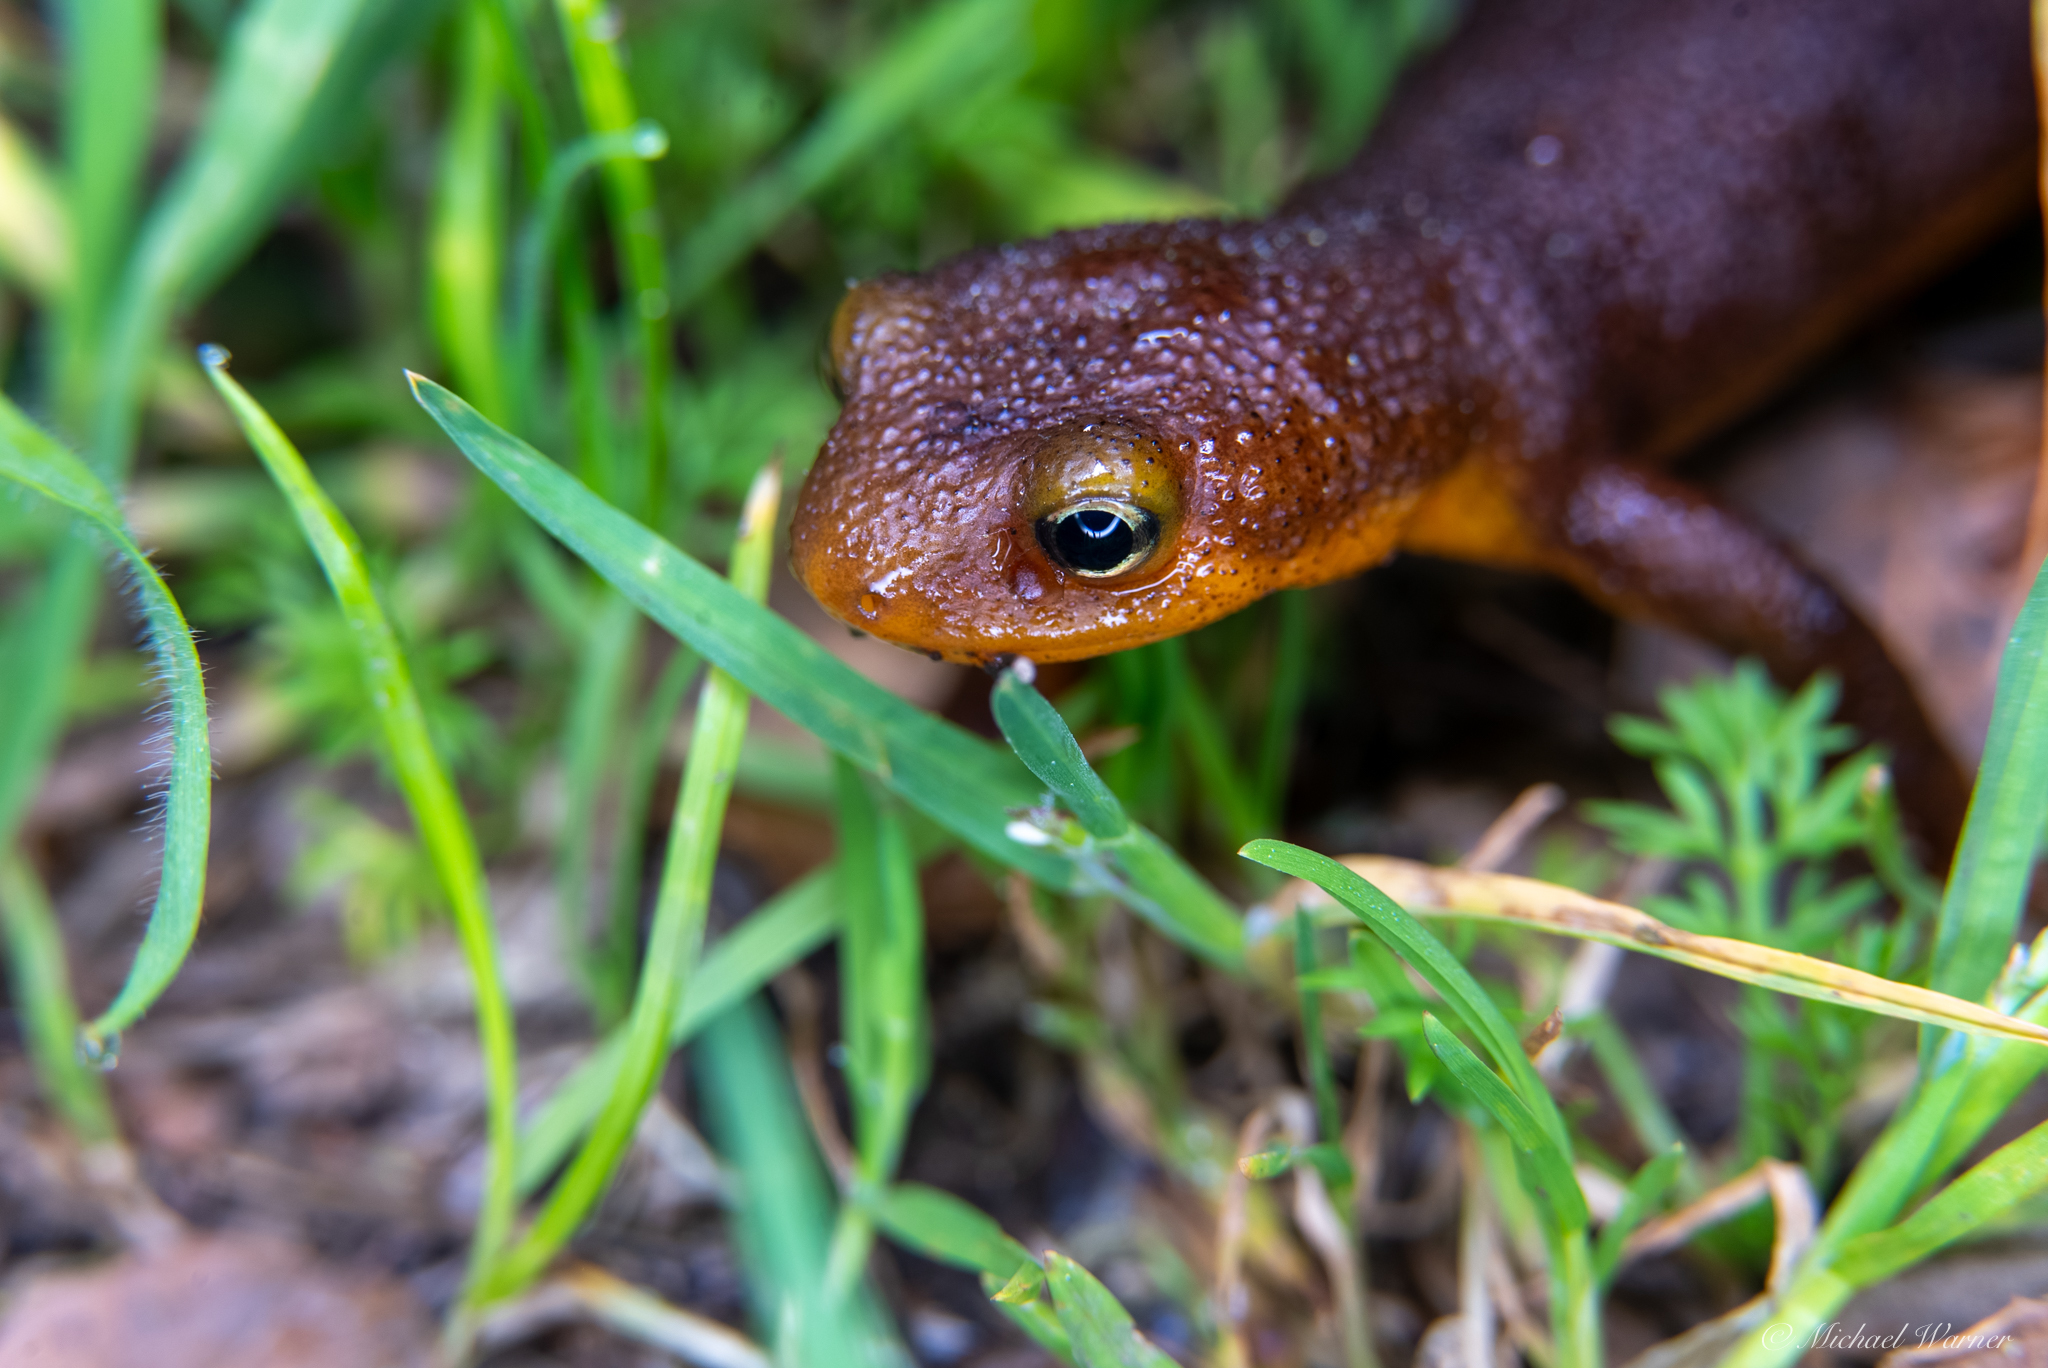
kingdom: Animalia
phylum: Chordata
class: Amphibia
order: Caudata
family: Salamandridae
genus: Taricha
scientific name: Taricha torosa
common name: California newt
